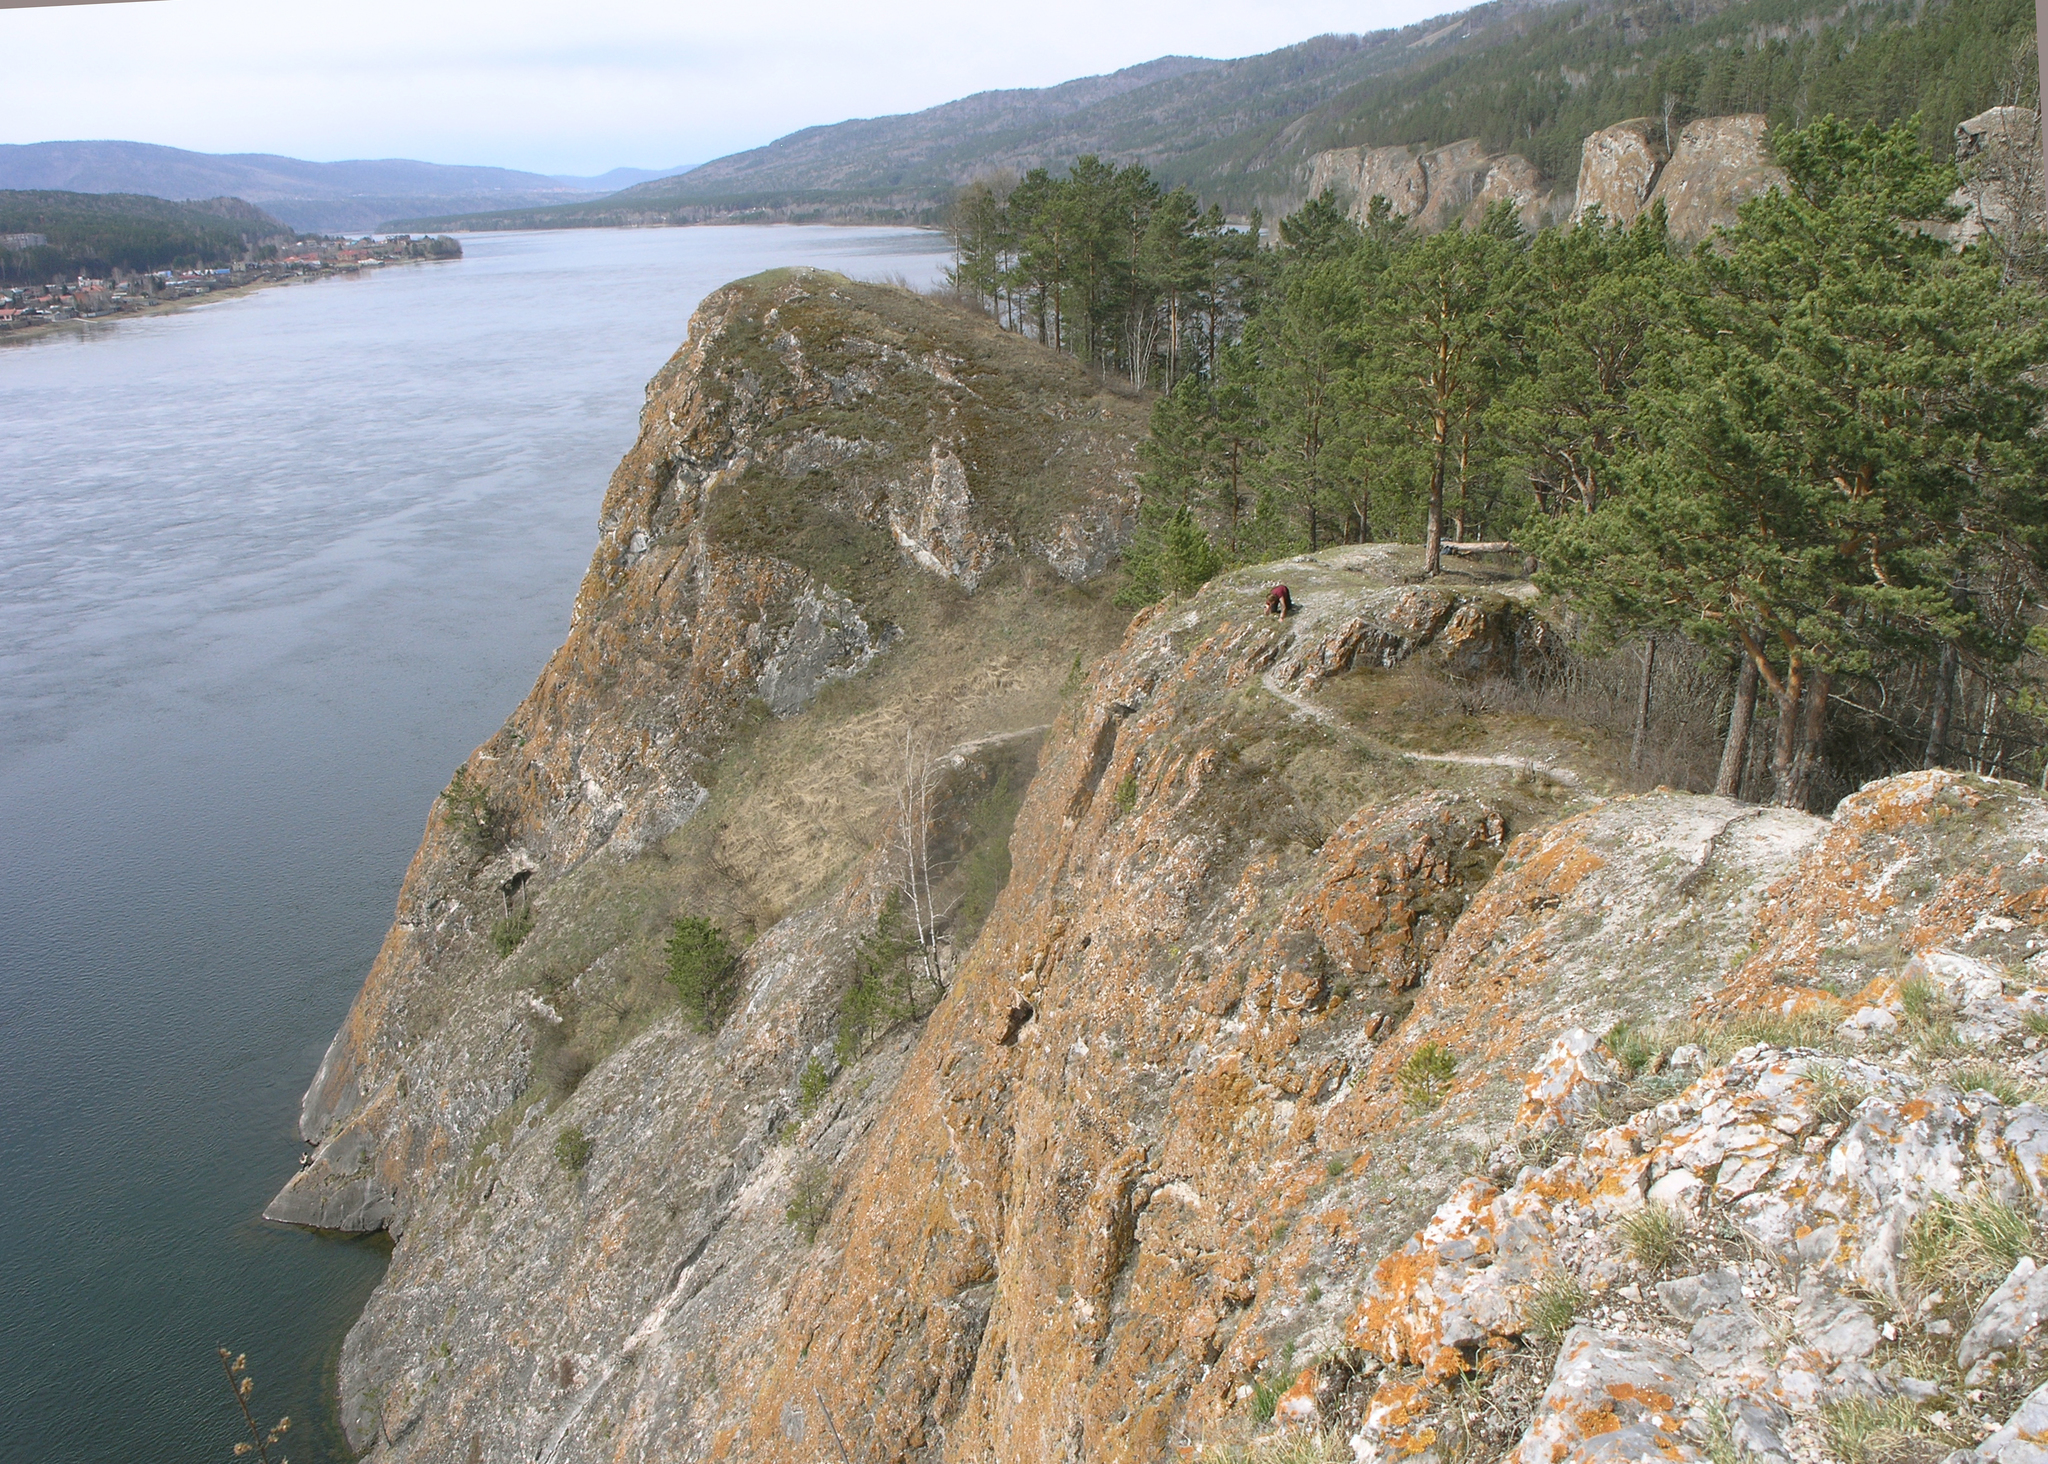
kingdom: Plantae
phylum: Tracheophyta
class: Pinopsida
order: Pinales
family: Pinaceae
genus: Pinus
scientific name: Pinus sylvestris
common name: Scots pine
